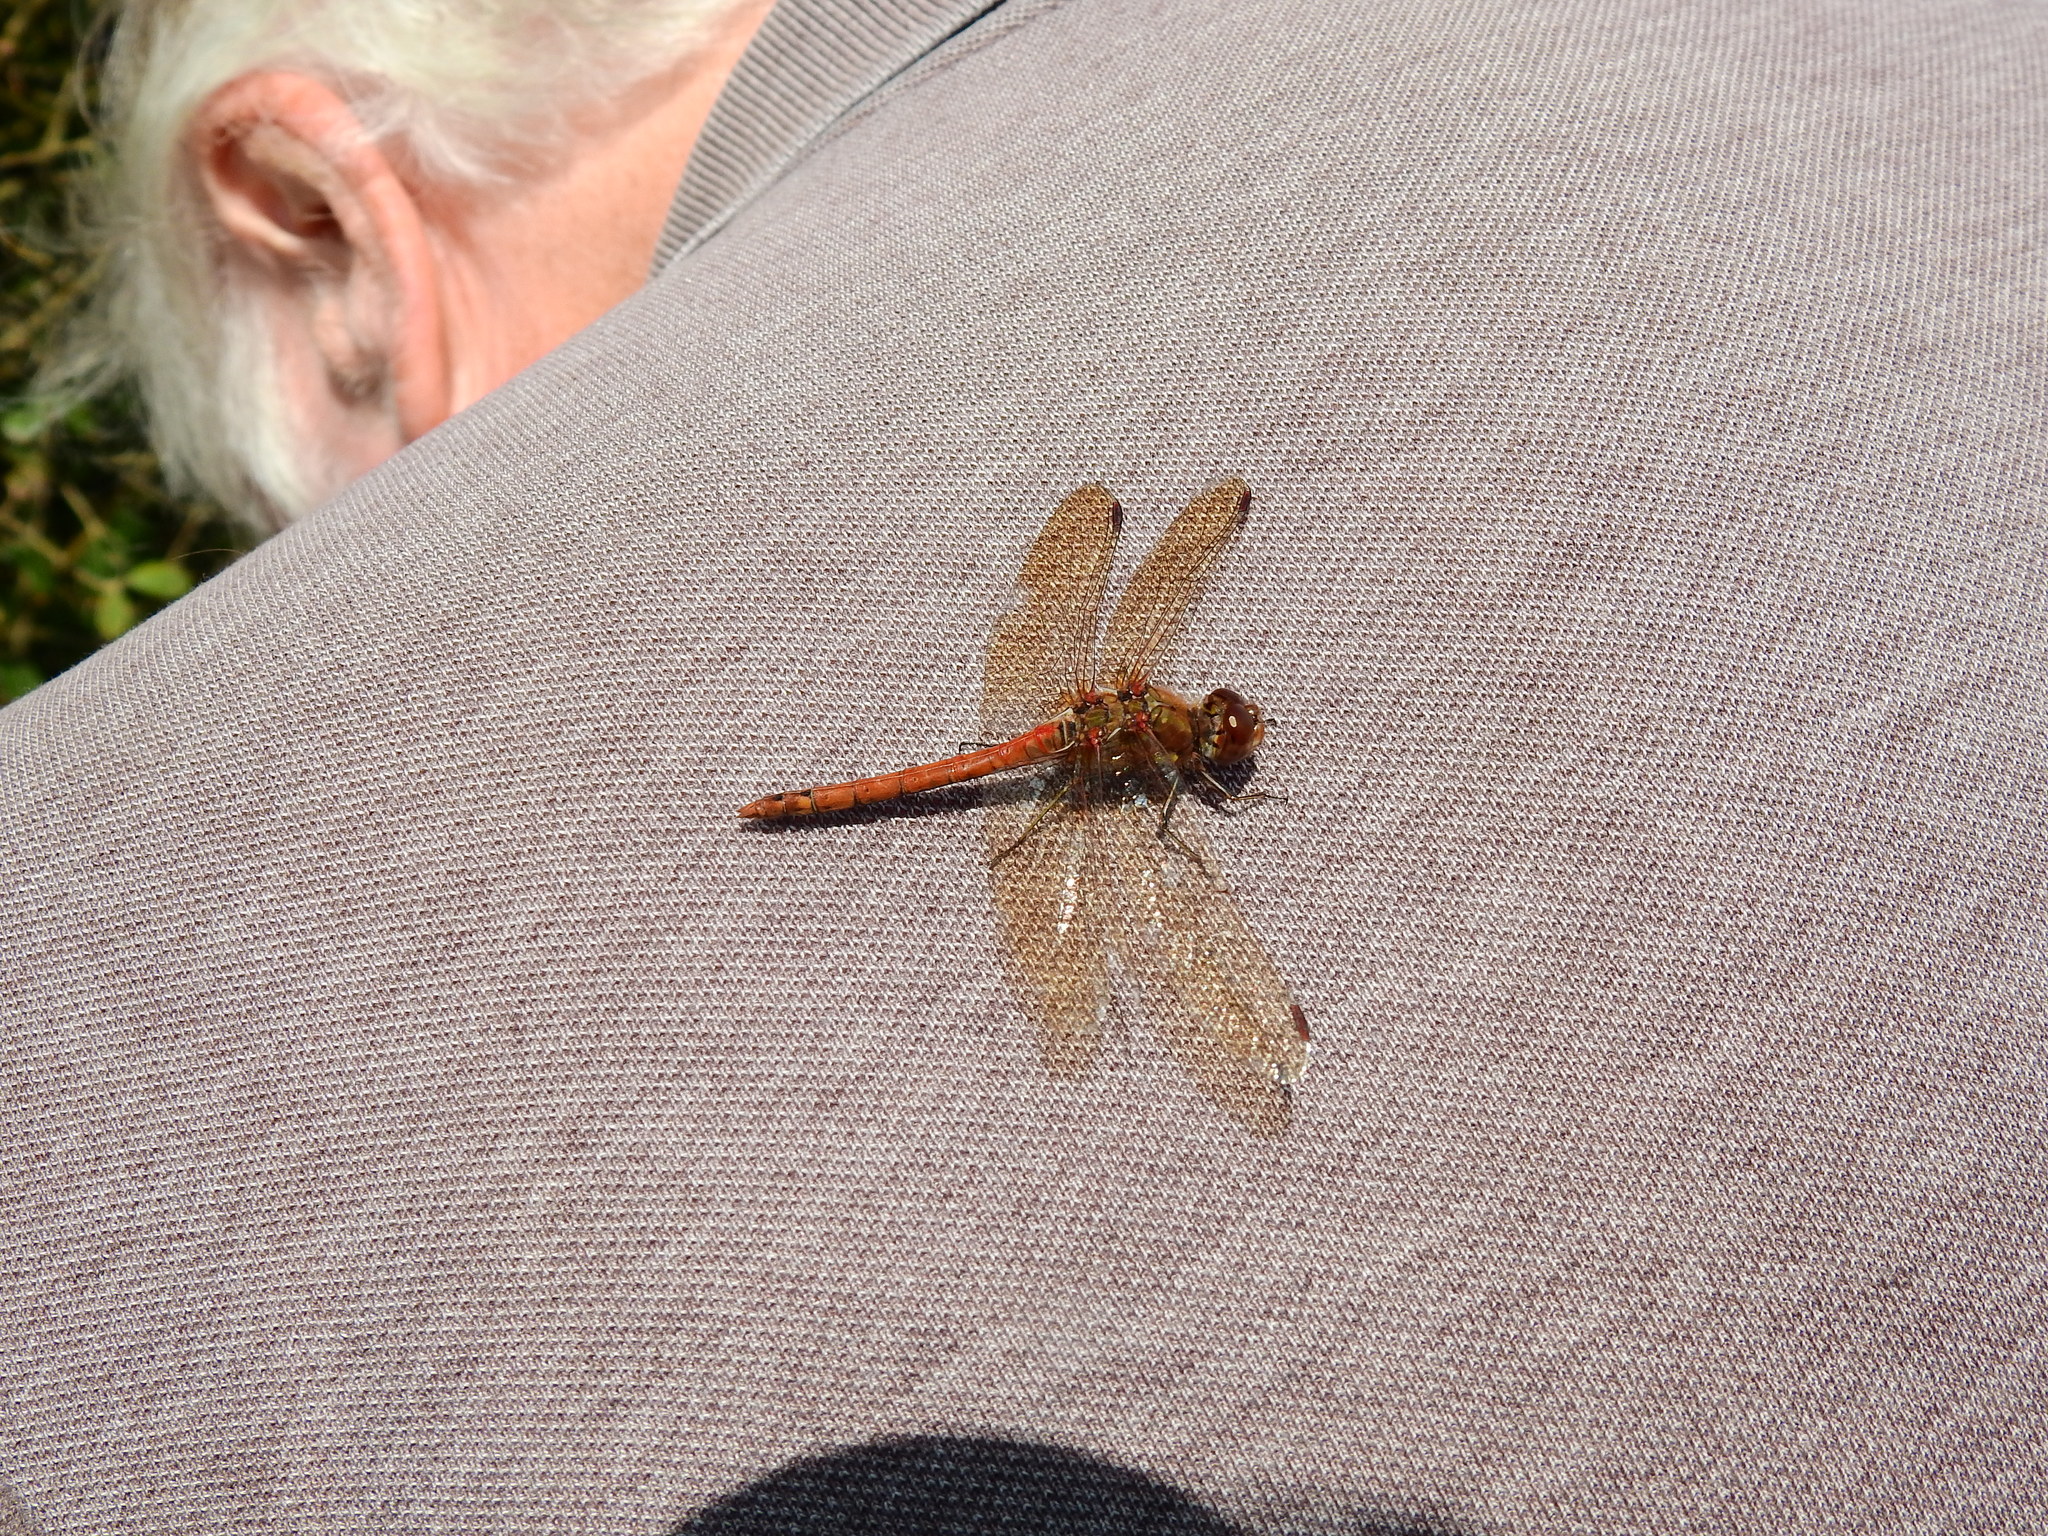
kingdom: Animalia
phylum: Arthropoda
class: Insecta
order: Odonata
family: Libellulidae
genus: Sympetrum
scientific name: Sympetrum striolatum
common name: Common darter
